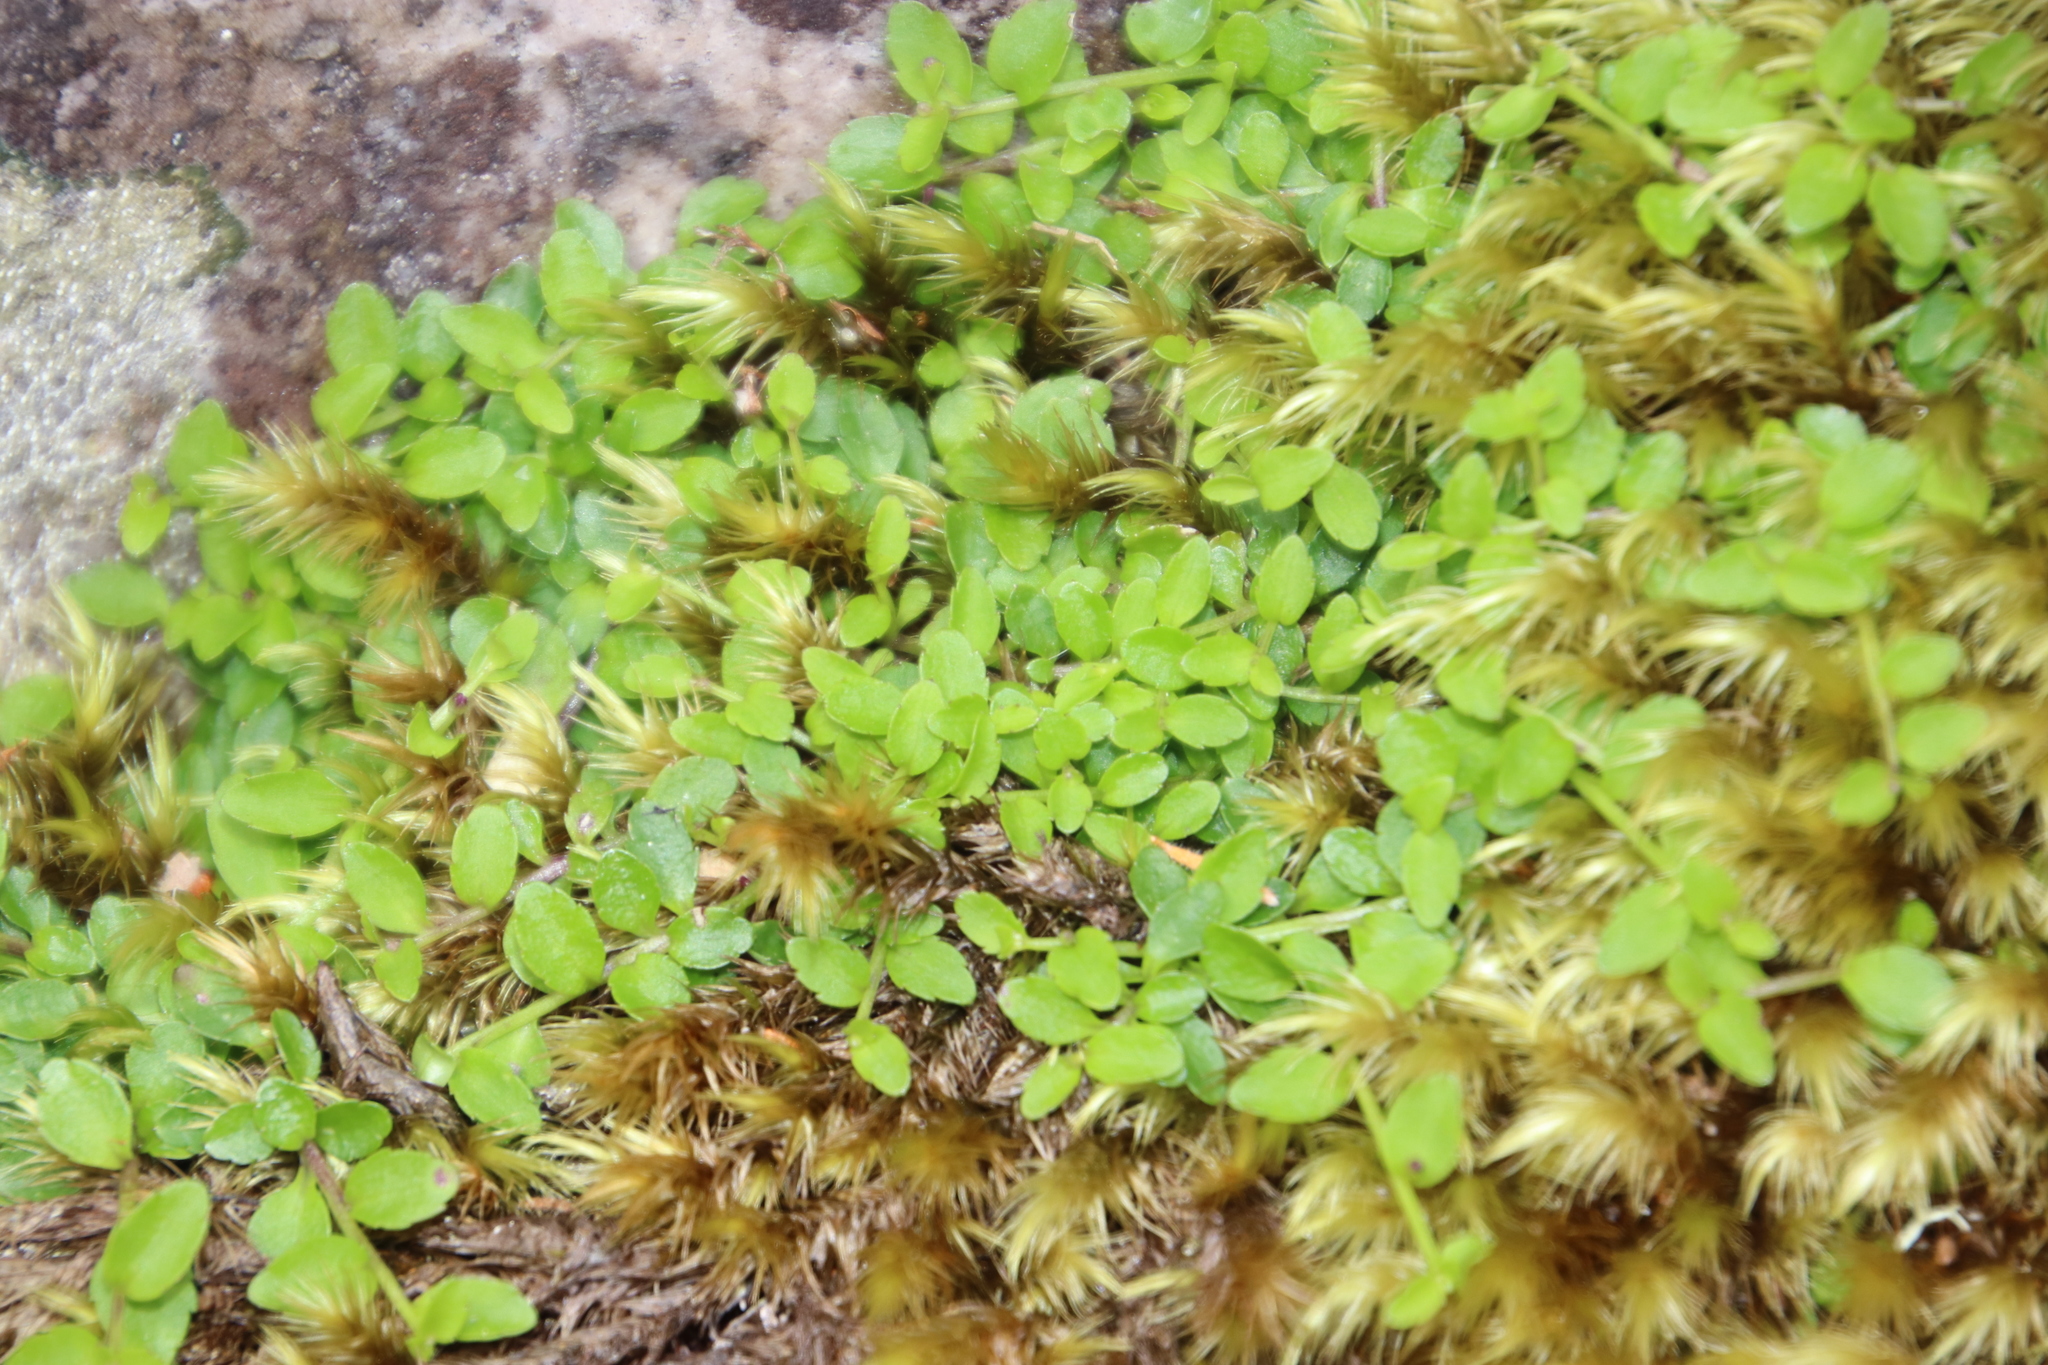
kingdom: Plantae
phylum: Tracheophyta
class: Magnoliopsida
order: Asterales
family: Campanulaceae
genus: Unigenes
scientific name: Unigenes humifusa
